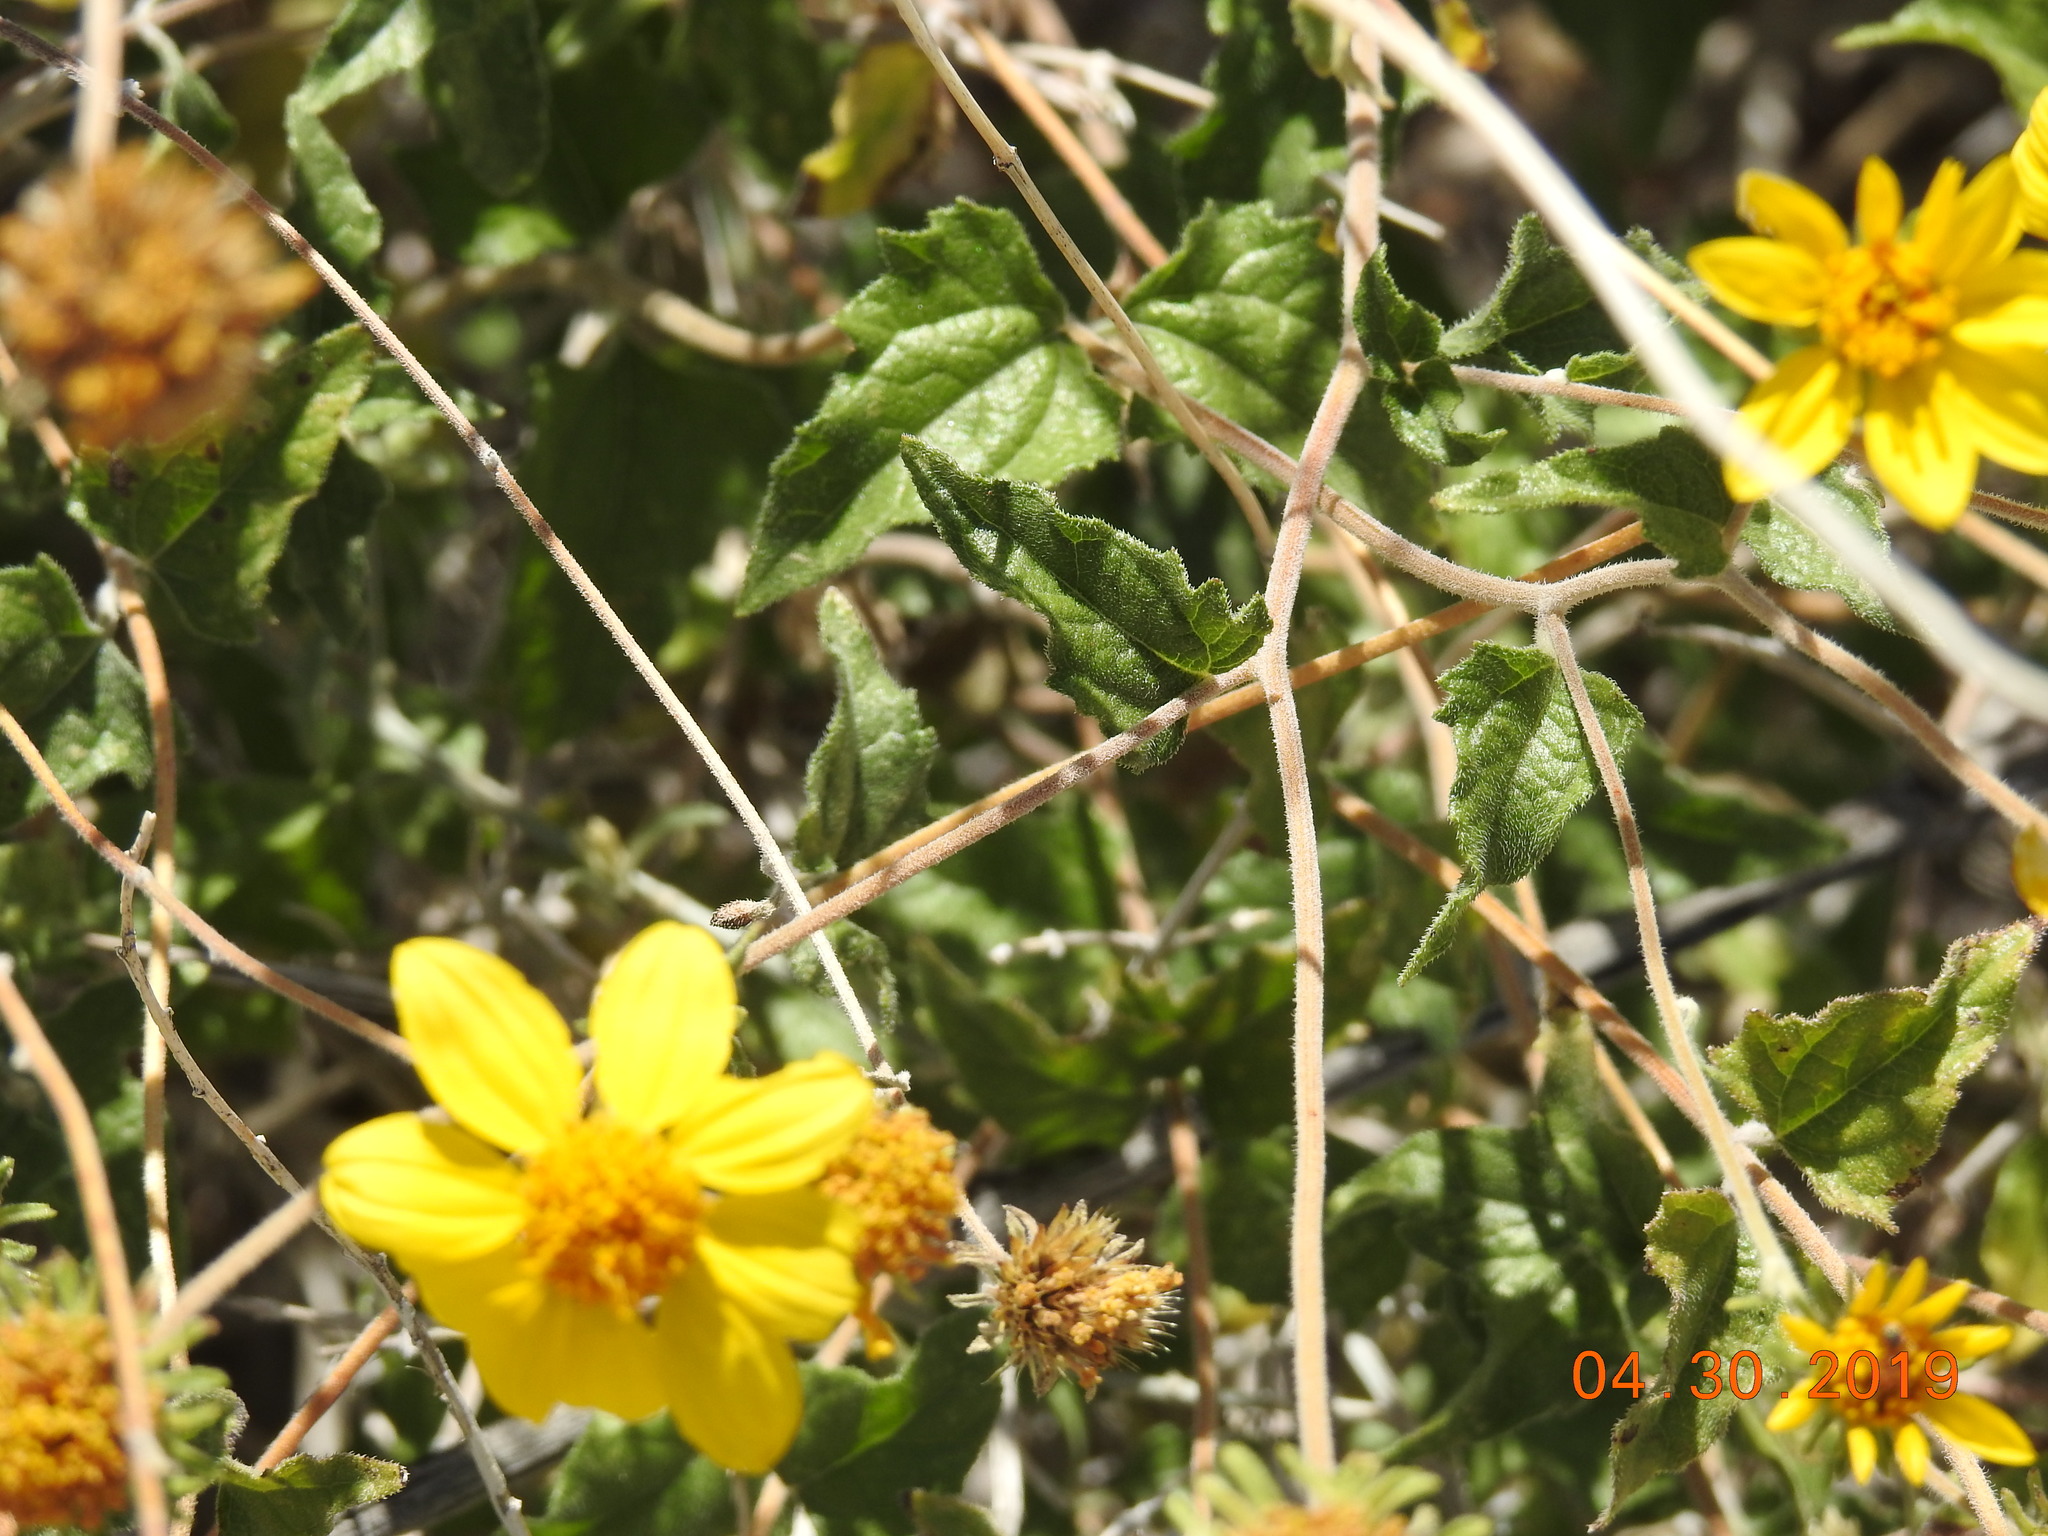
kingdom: Plantae
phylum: Tracheophyta
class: Magnoliopsida
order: Asterales
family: Asteraceae
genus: Bahiopsis
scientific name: Bahiopsis parishii
